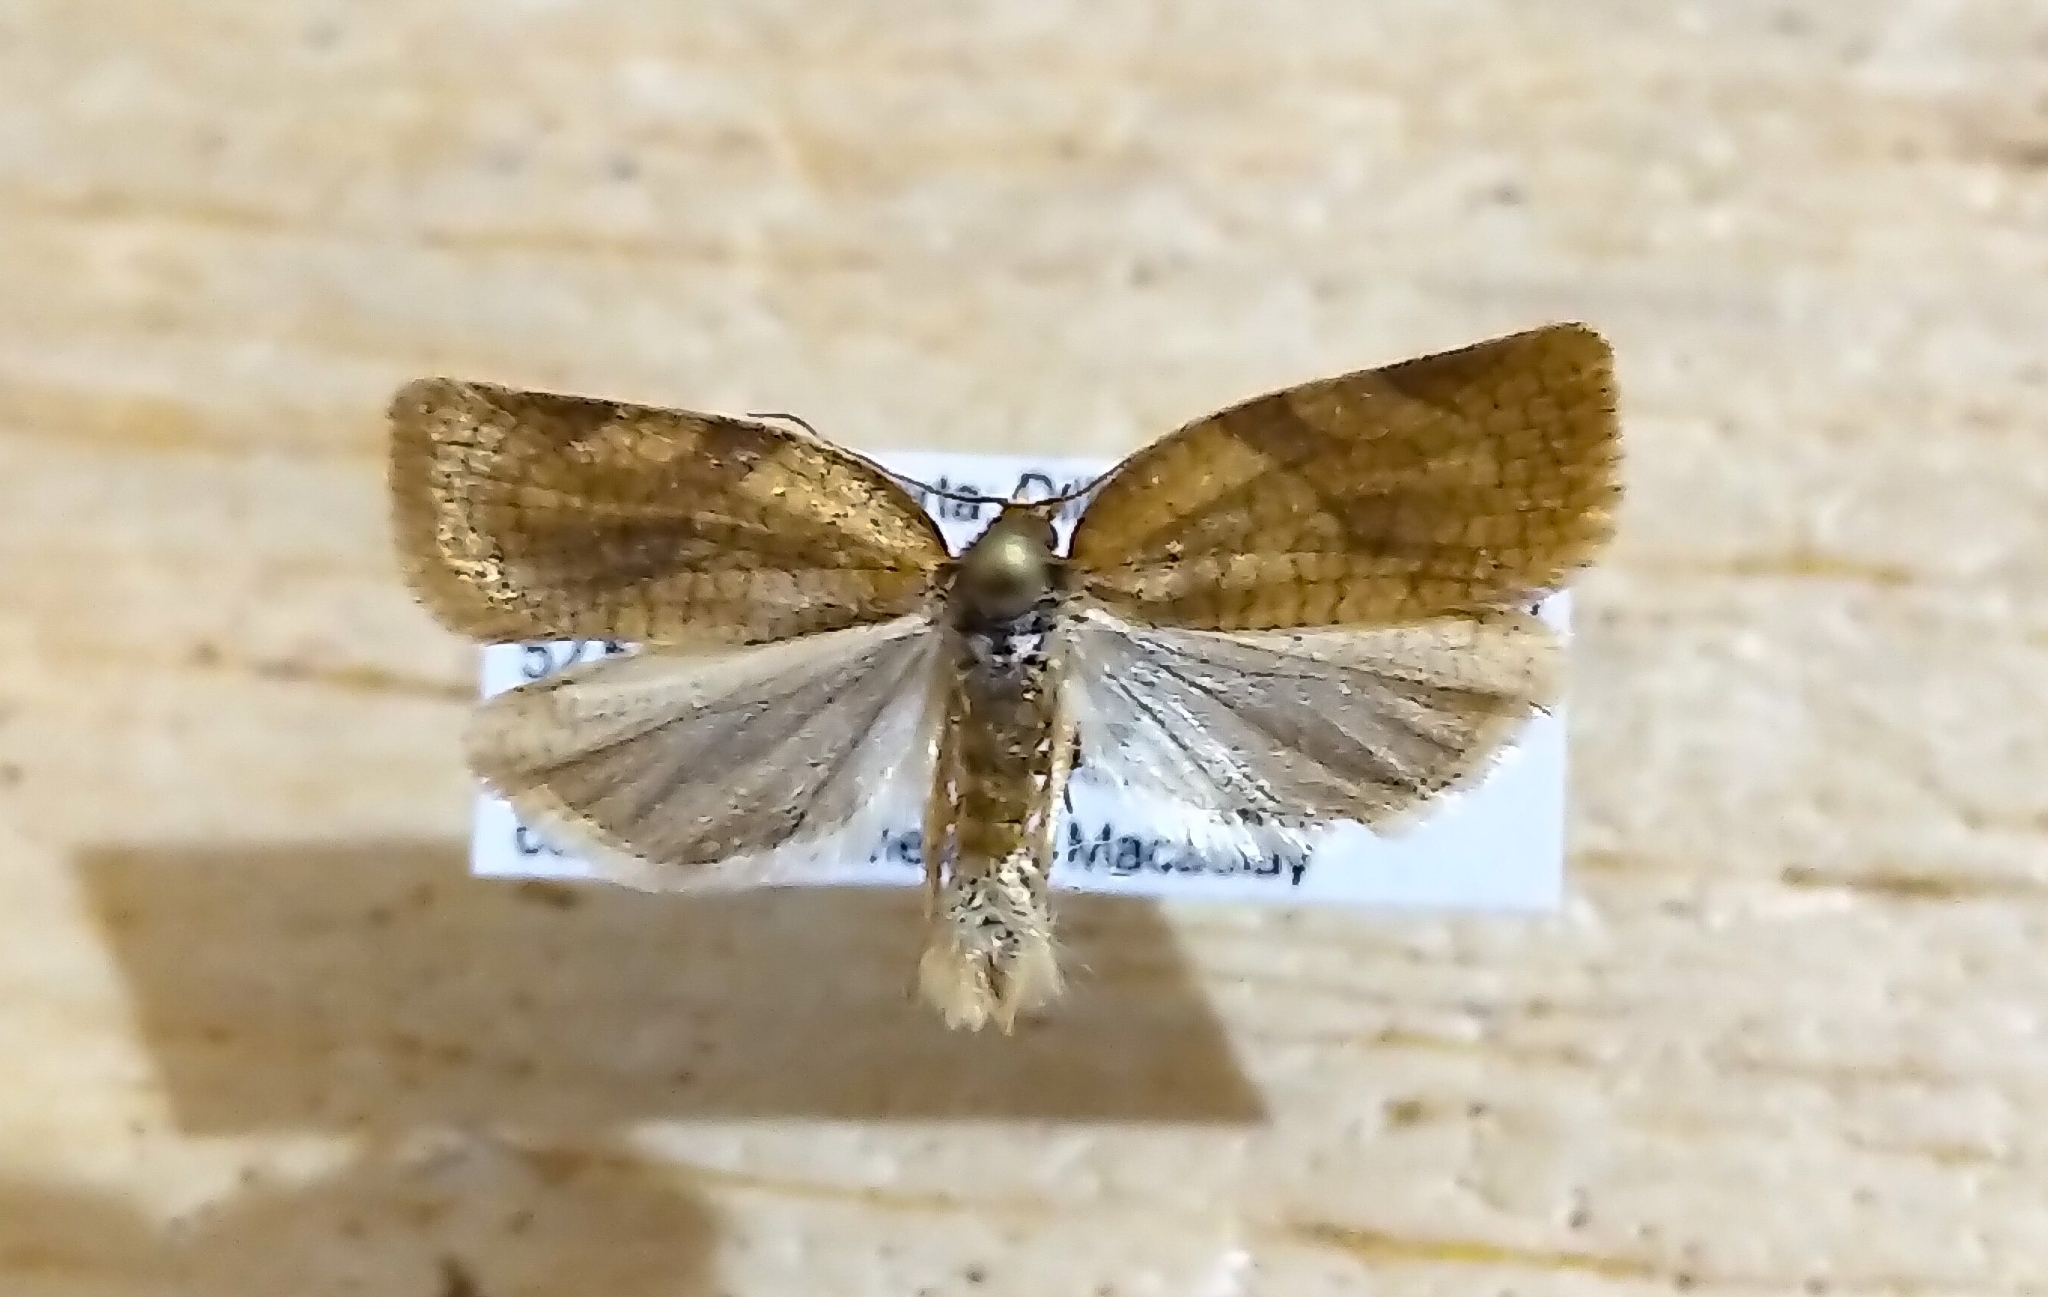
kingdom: Animalia
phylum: Arthropoda
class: Insecta
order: Lepidoptera
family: Tortricidae
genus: Aphelia
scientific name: Aphelia alleniana
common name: Allen's tortrix moth
